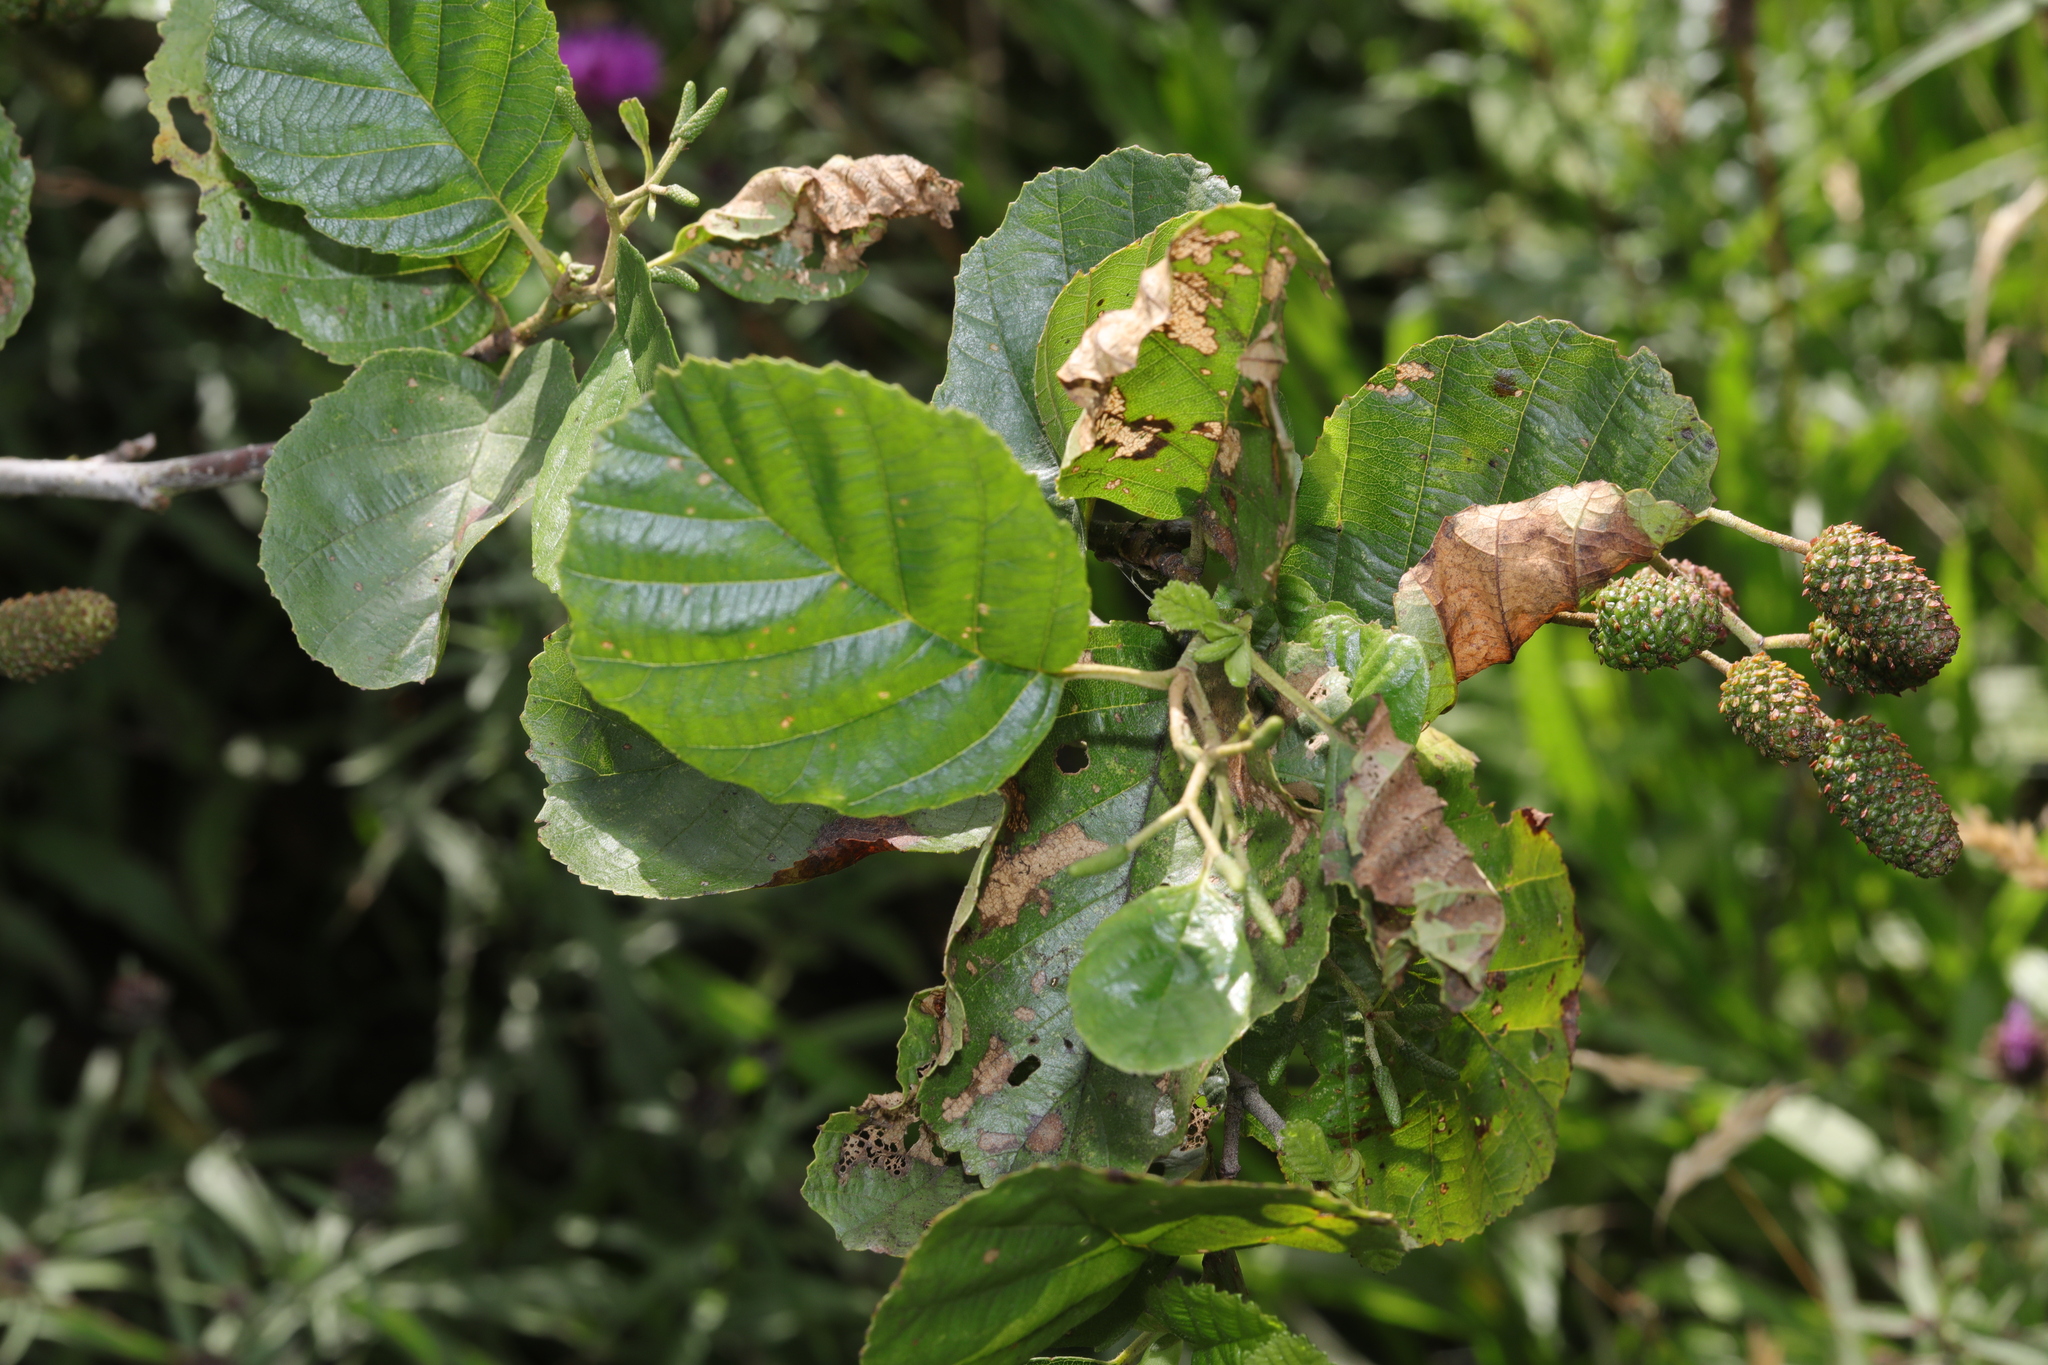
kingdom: Plantae
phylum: Tracheophyta
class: Magnoliopsida
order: Fagales
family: Betulaceae
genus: Alnus
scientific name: Alnus glutinosa
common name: Black alder
